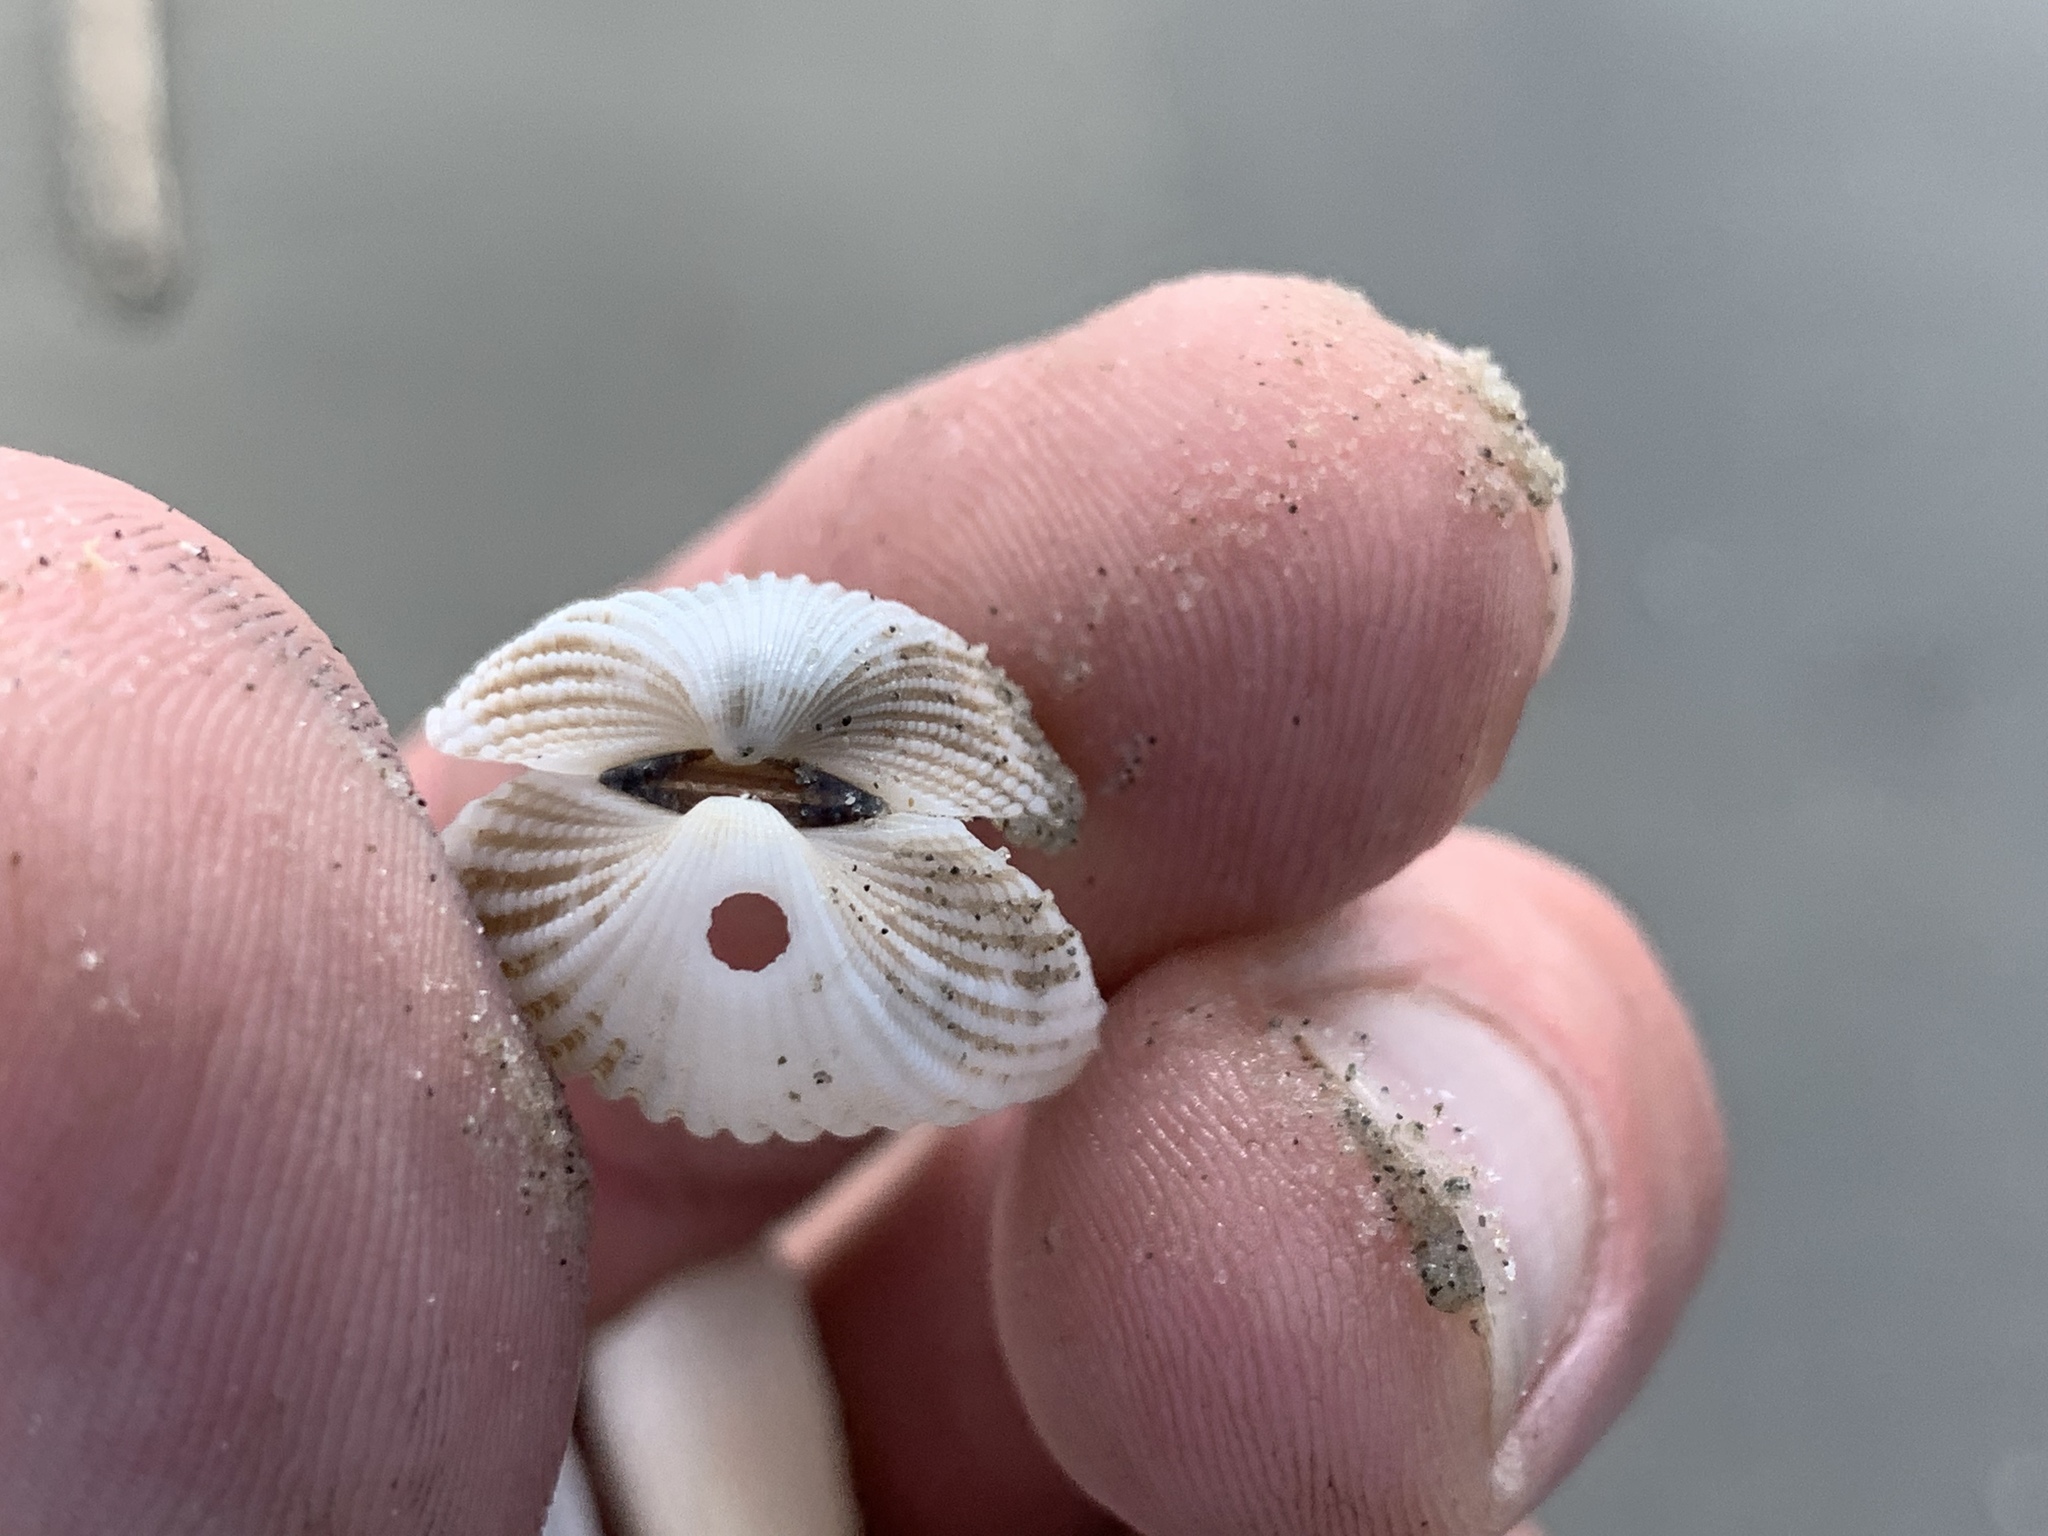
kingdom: Animalia
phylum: Mollusca
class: Bivalvia
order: Arcida
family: Arcidae
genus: Anadara
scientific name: Anadara brasiliana
